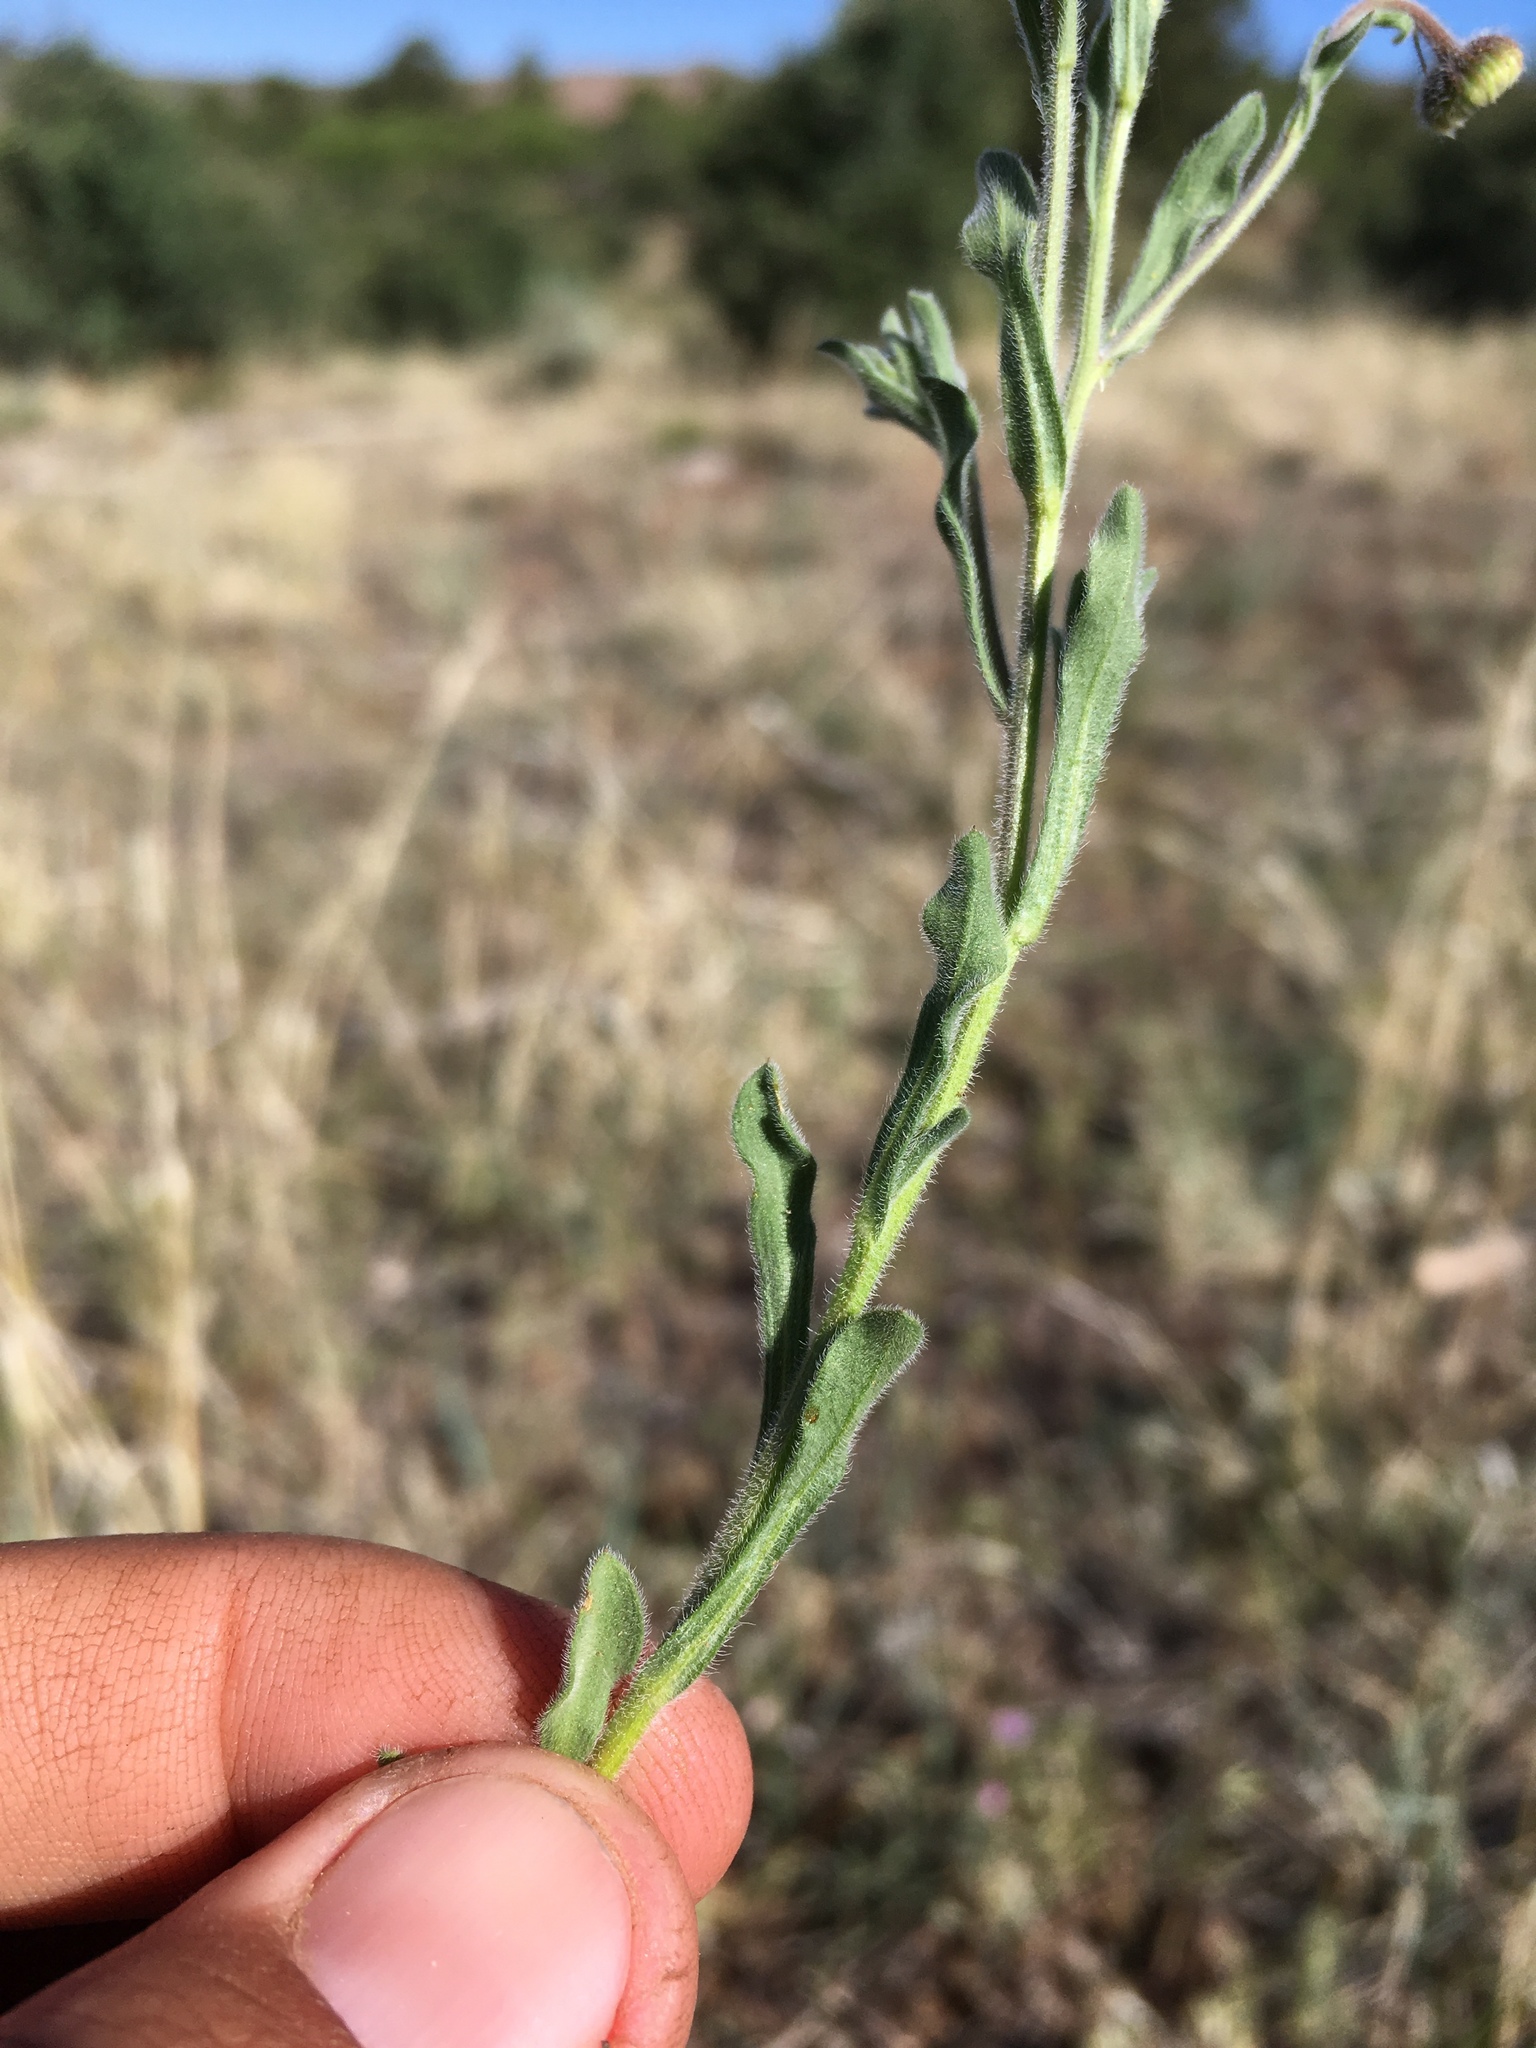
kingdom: Plantae
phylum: Tracheophyta
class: Magnoliopsida
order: Asterales
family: Asteraceae
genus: Erigeron
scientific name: Erigeron divergens
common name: Diffuse fleabane
